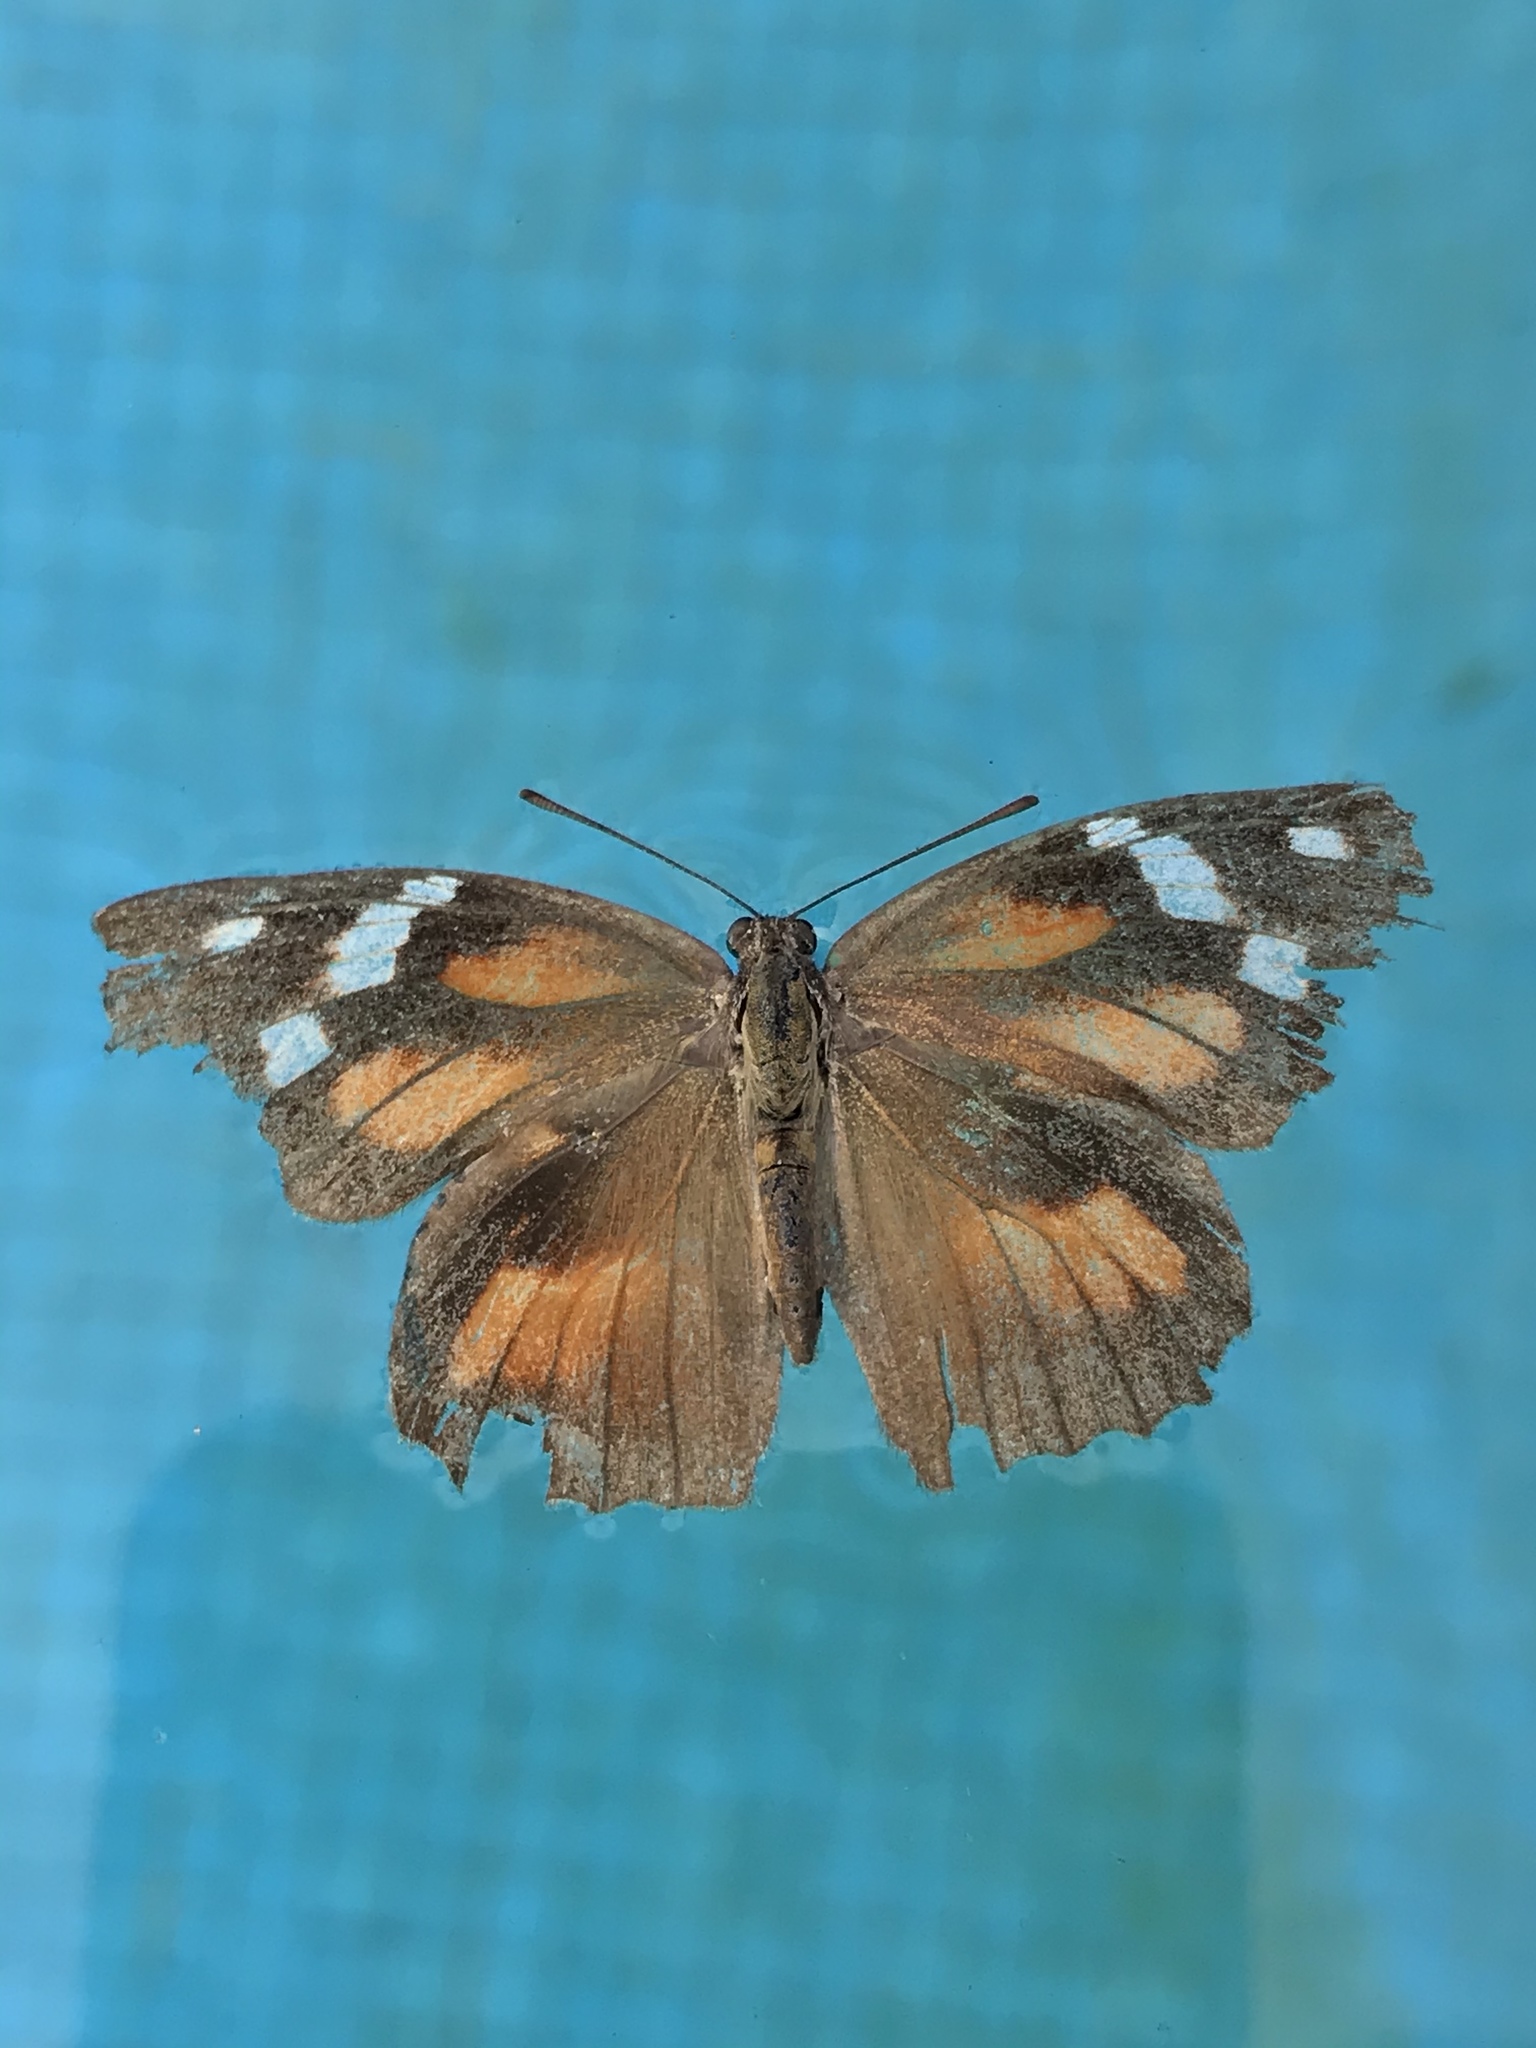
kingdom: Animalia
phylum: Arthropoda
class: Insecta
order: Lepidoptera
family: Nymphalidae
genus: Libytheana
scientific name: Libytheana carinenta
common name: American snout
